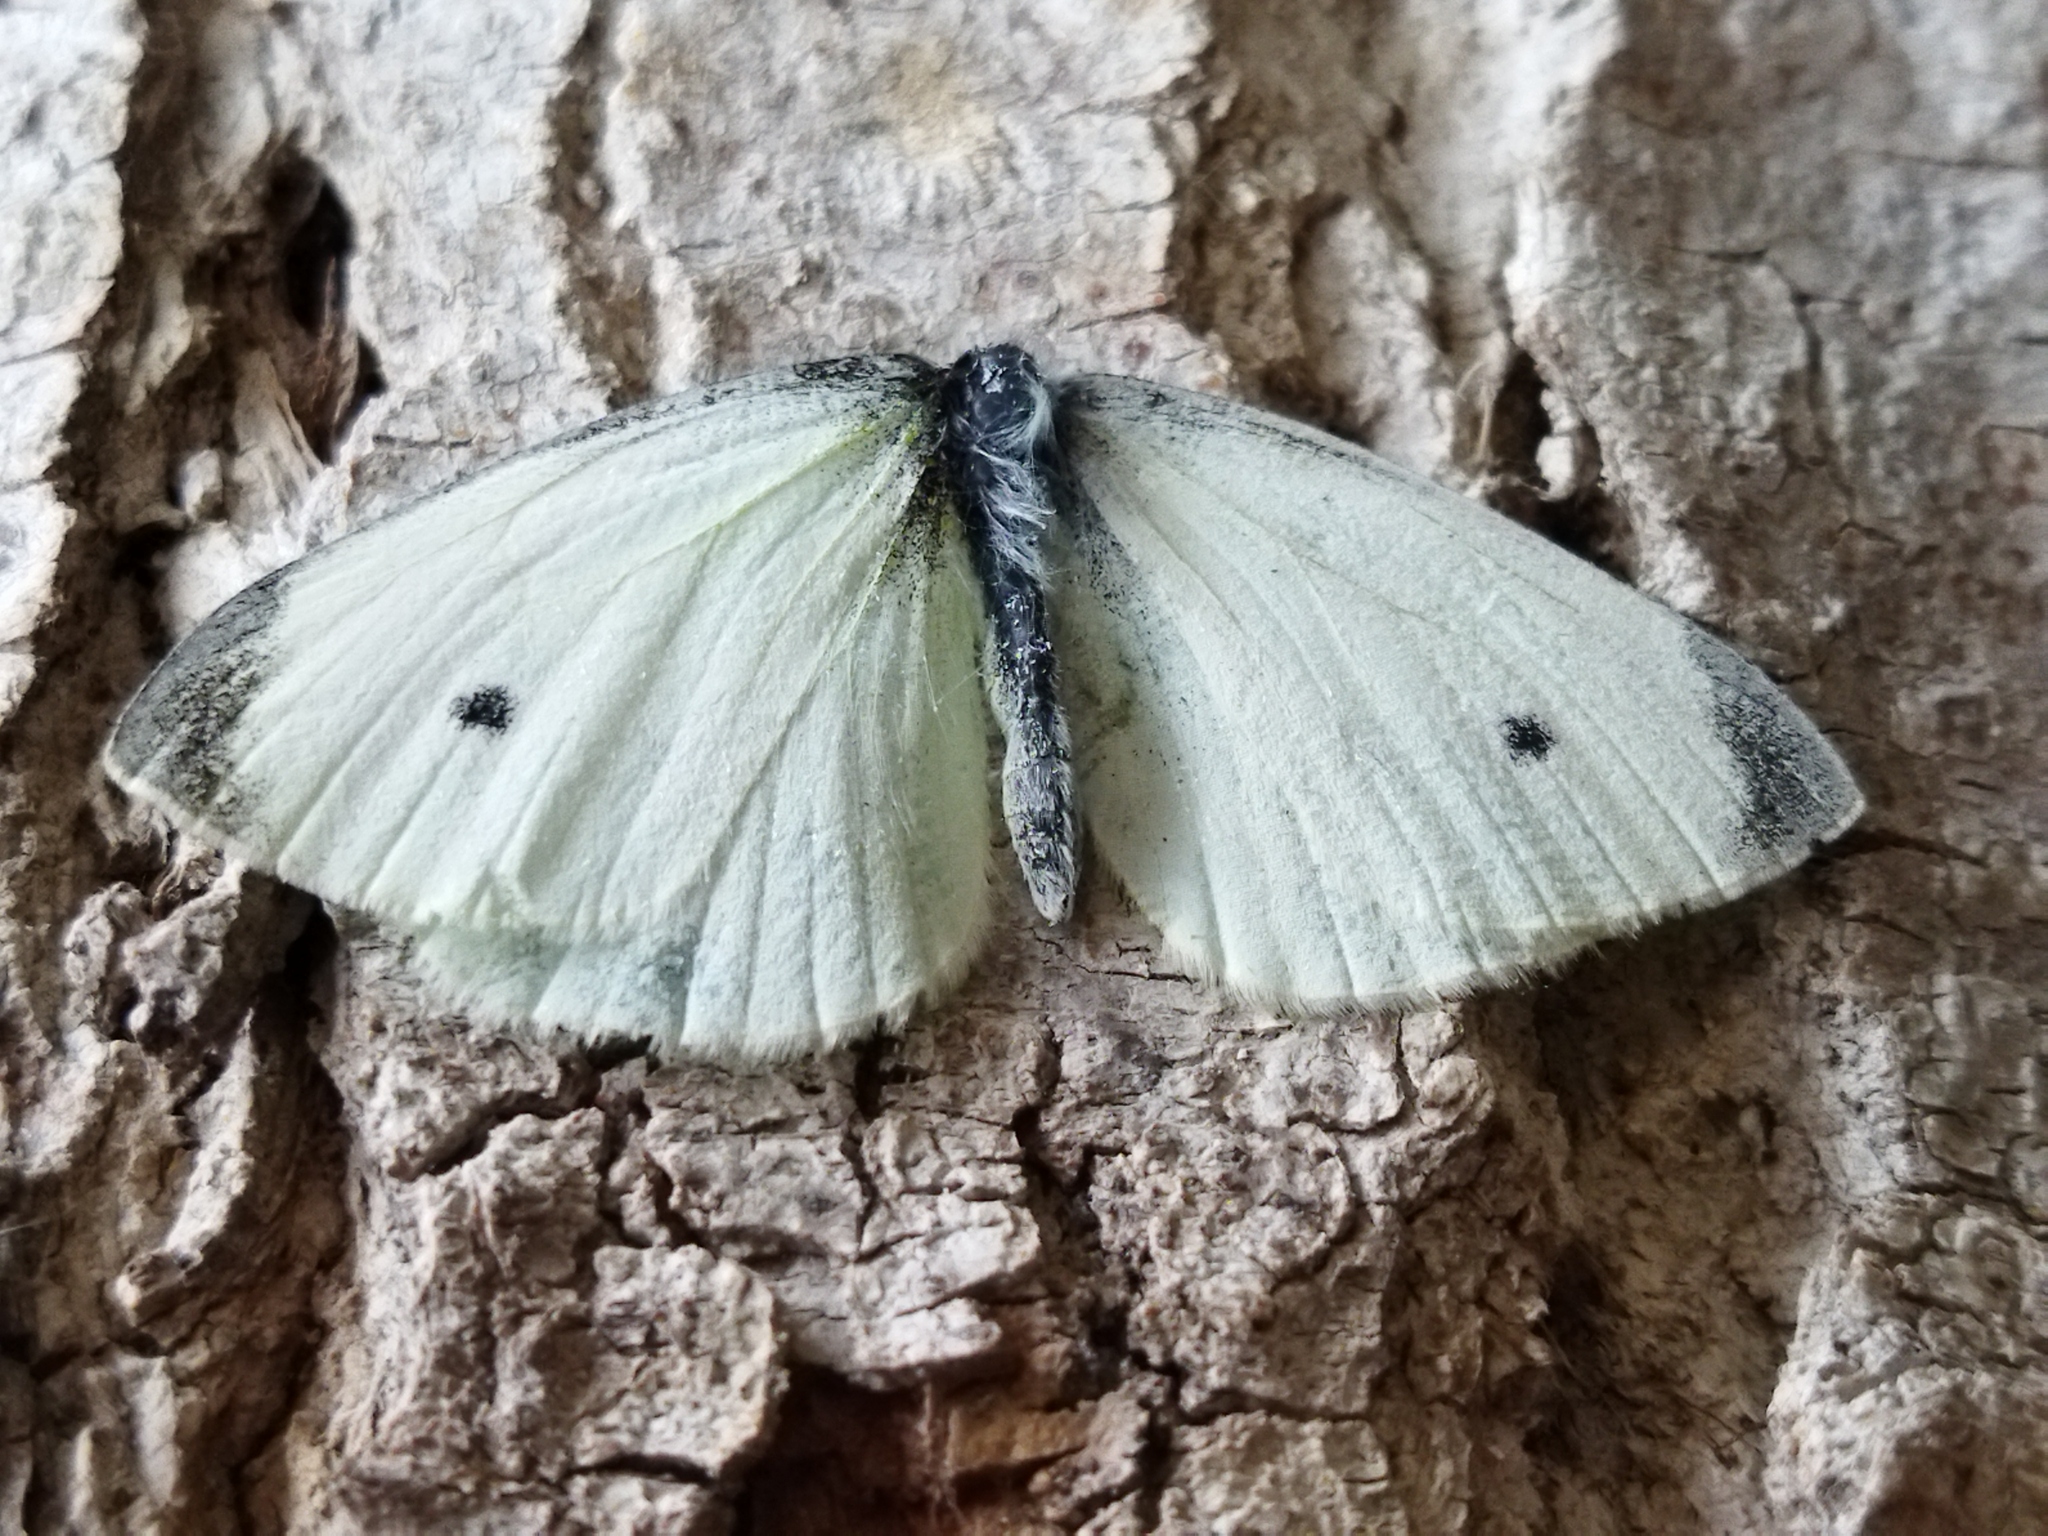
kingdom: Animalia
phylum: Arthropoda
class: Insecta
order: Lepidoptera
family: Pieridae
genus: Pieris
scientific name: Pieris rapae
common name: Small white
